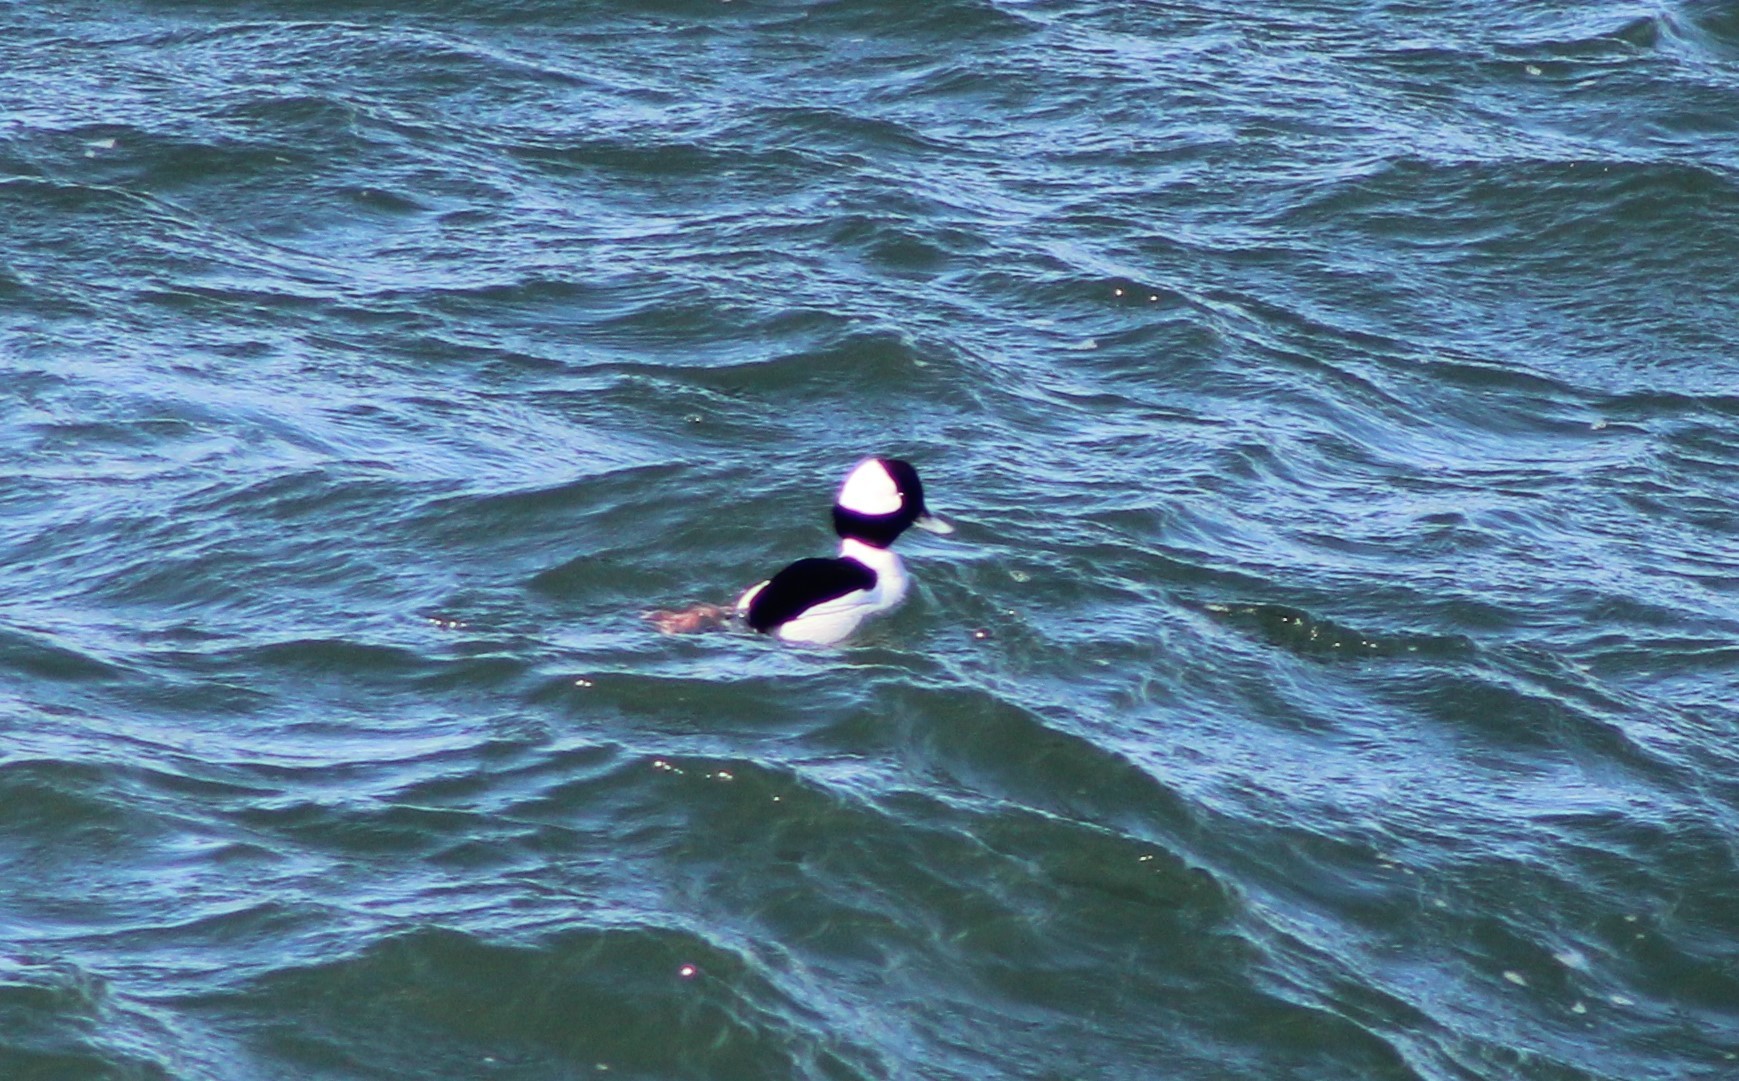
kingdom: Animalia
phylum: Chordata
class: Aves
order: Anseriformes
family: Anatidae
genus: Bucephala
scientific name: Bucephala albeola
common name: Bufflehead
